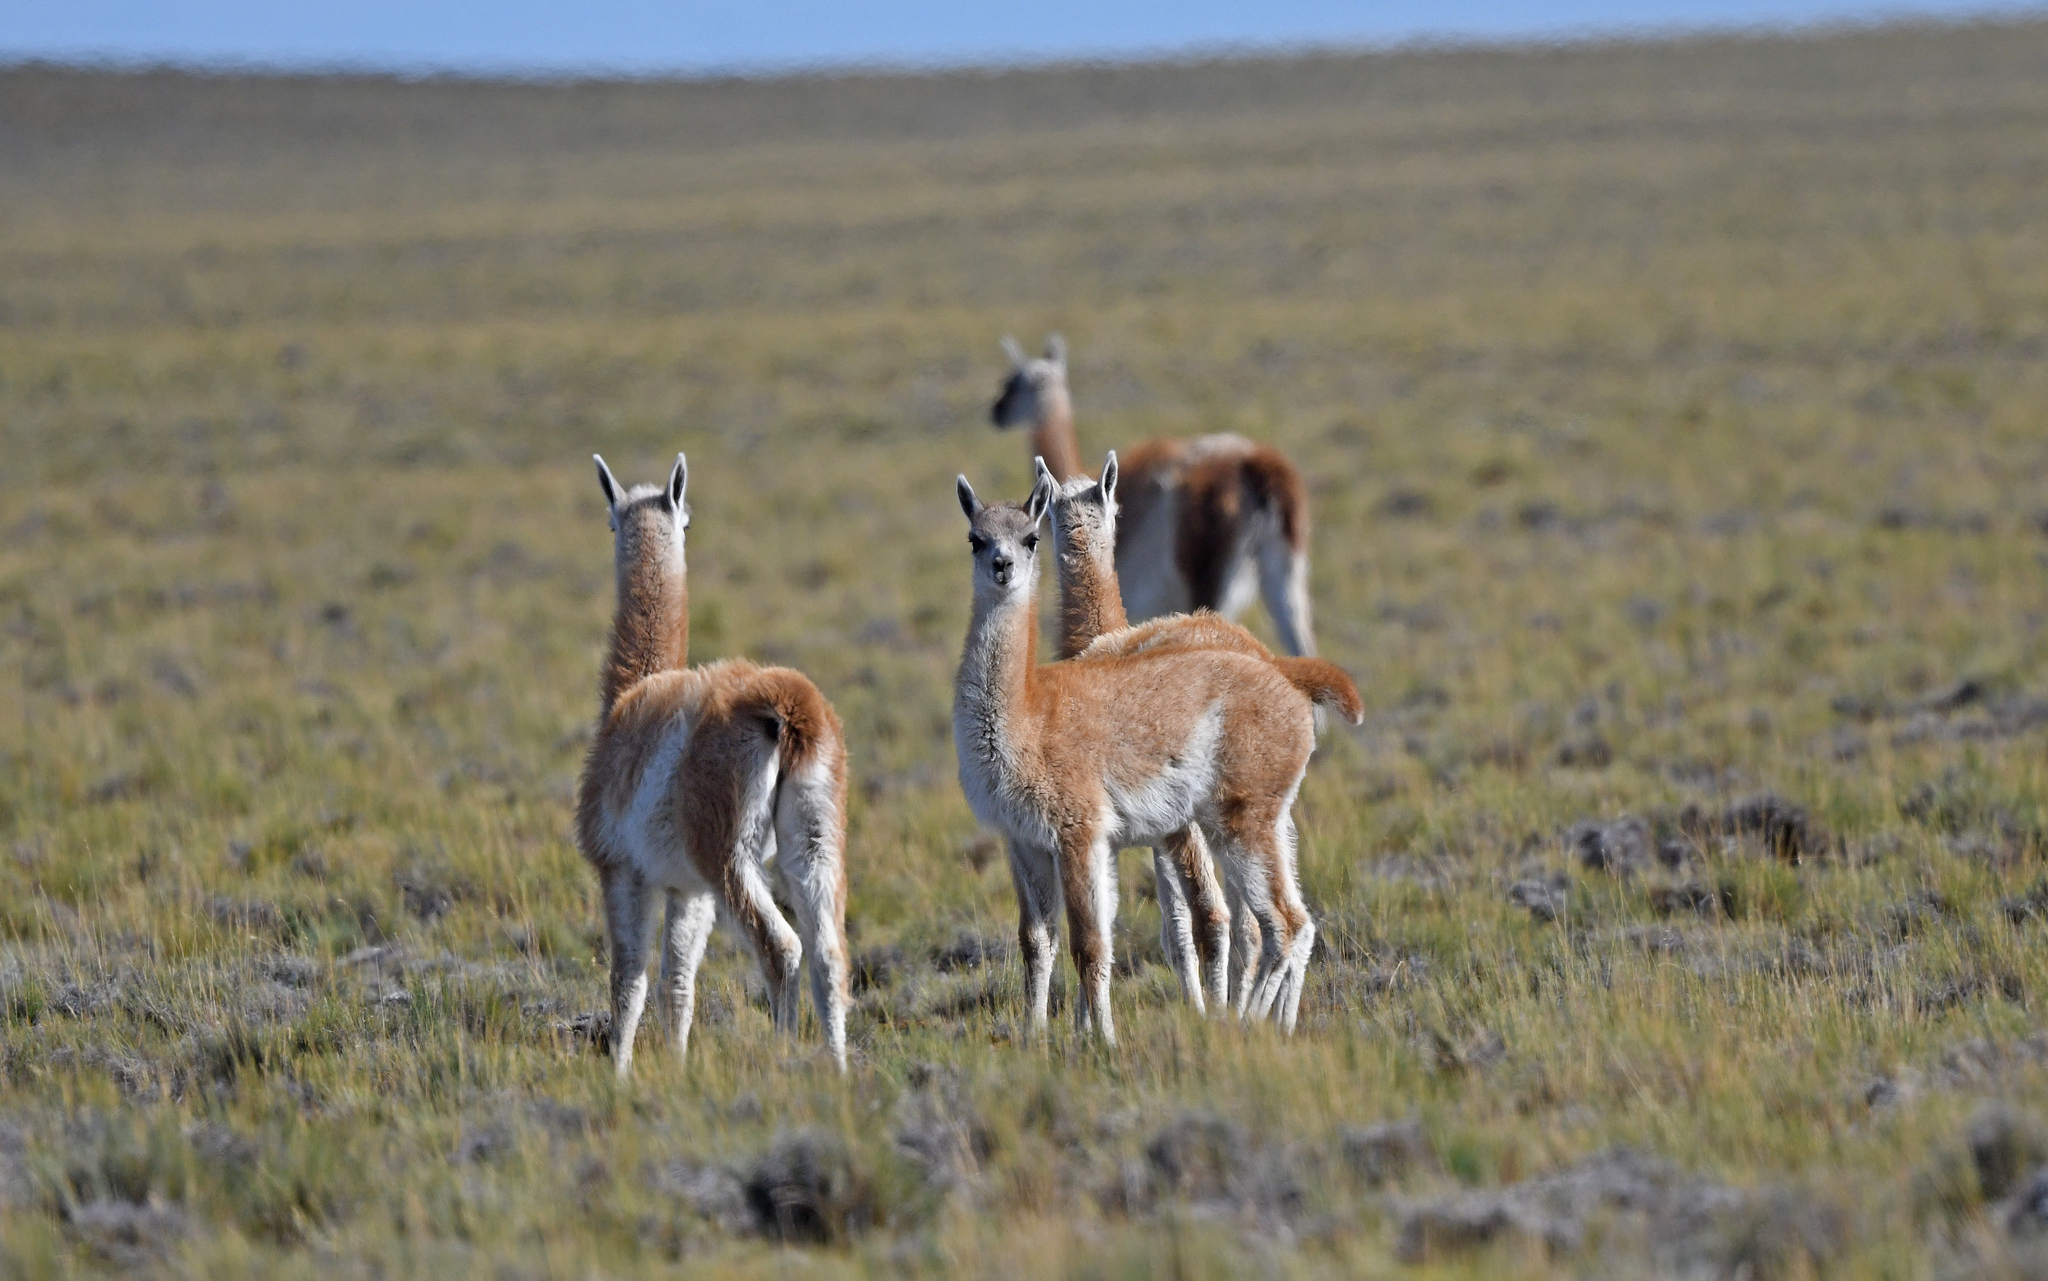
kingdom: Animalia
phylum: Chordata
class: Mammalia
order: Artiodactyla
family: Camelidae
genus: Lama
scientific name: Lama glama
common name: Llama
